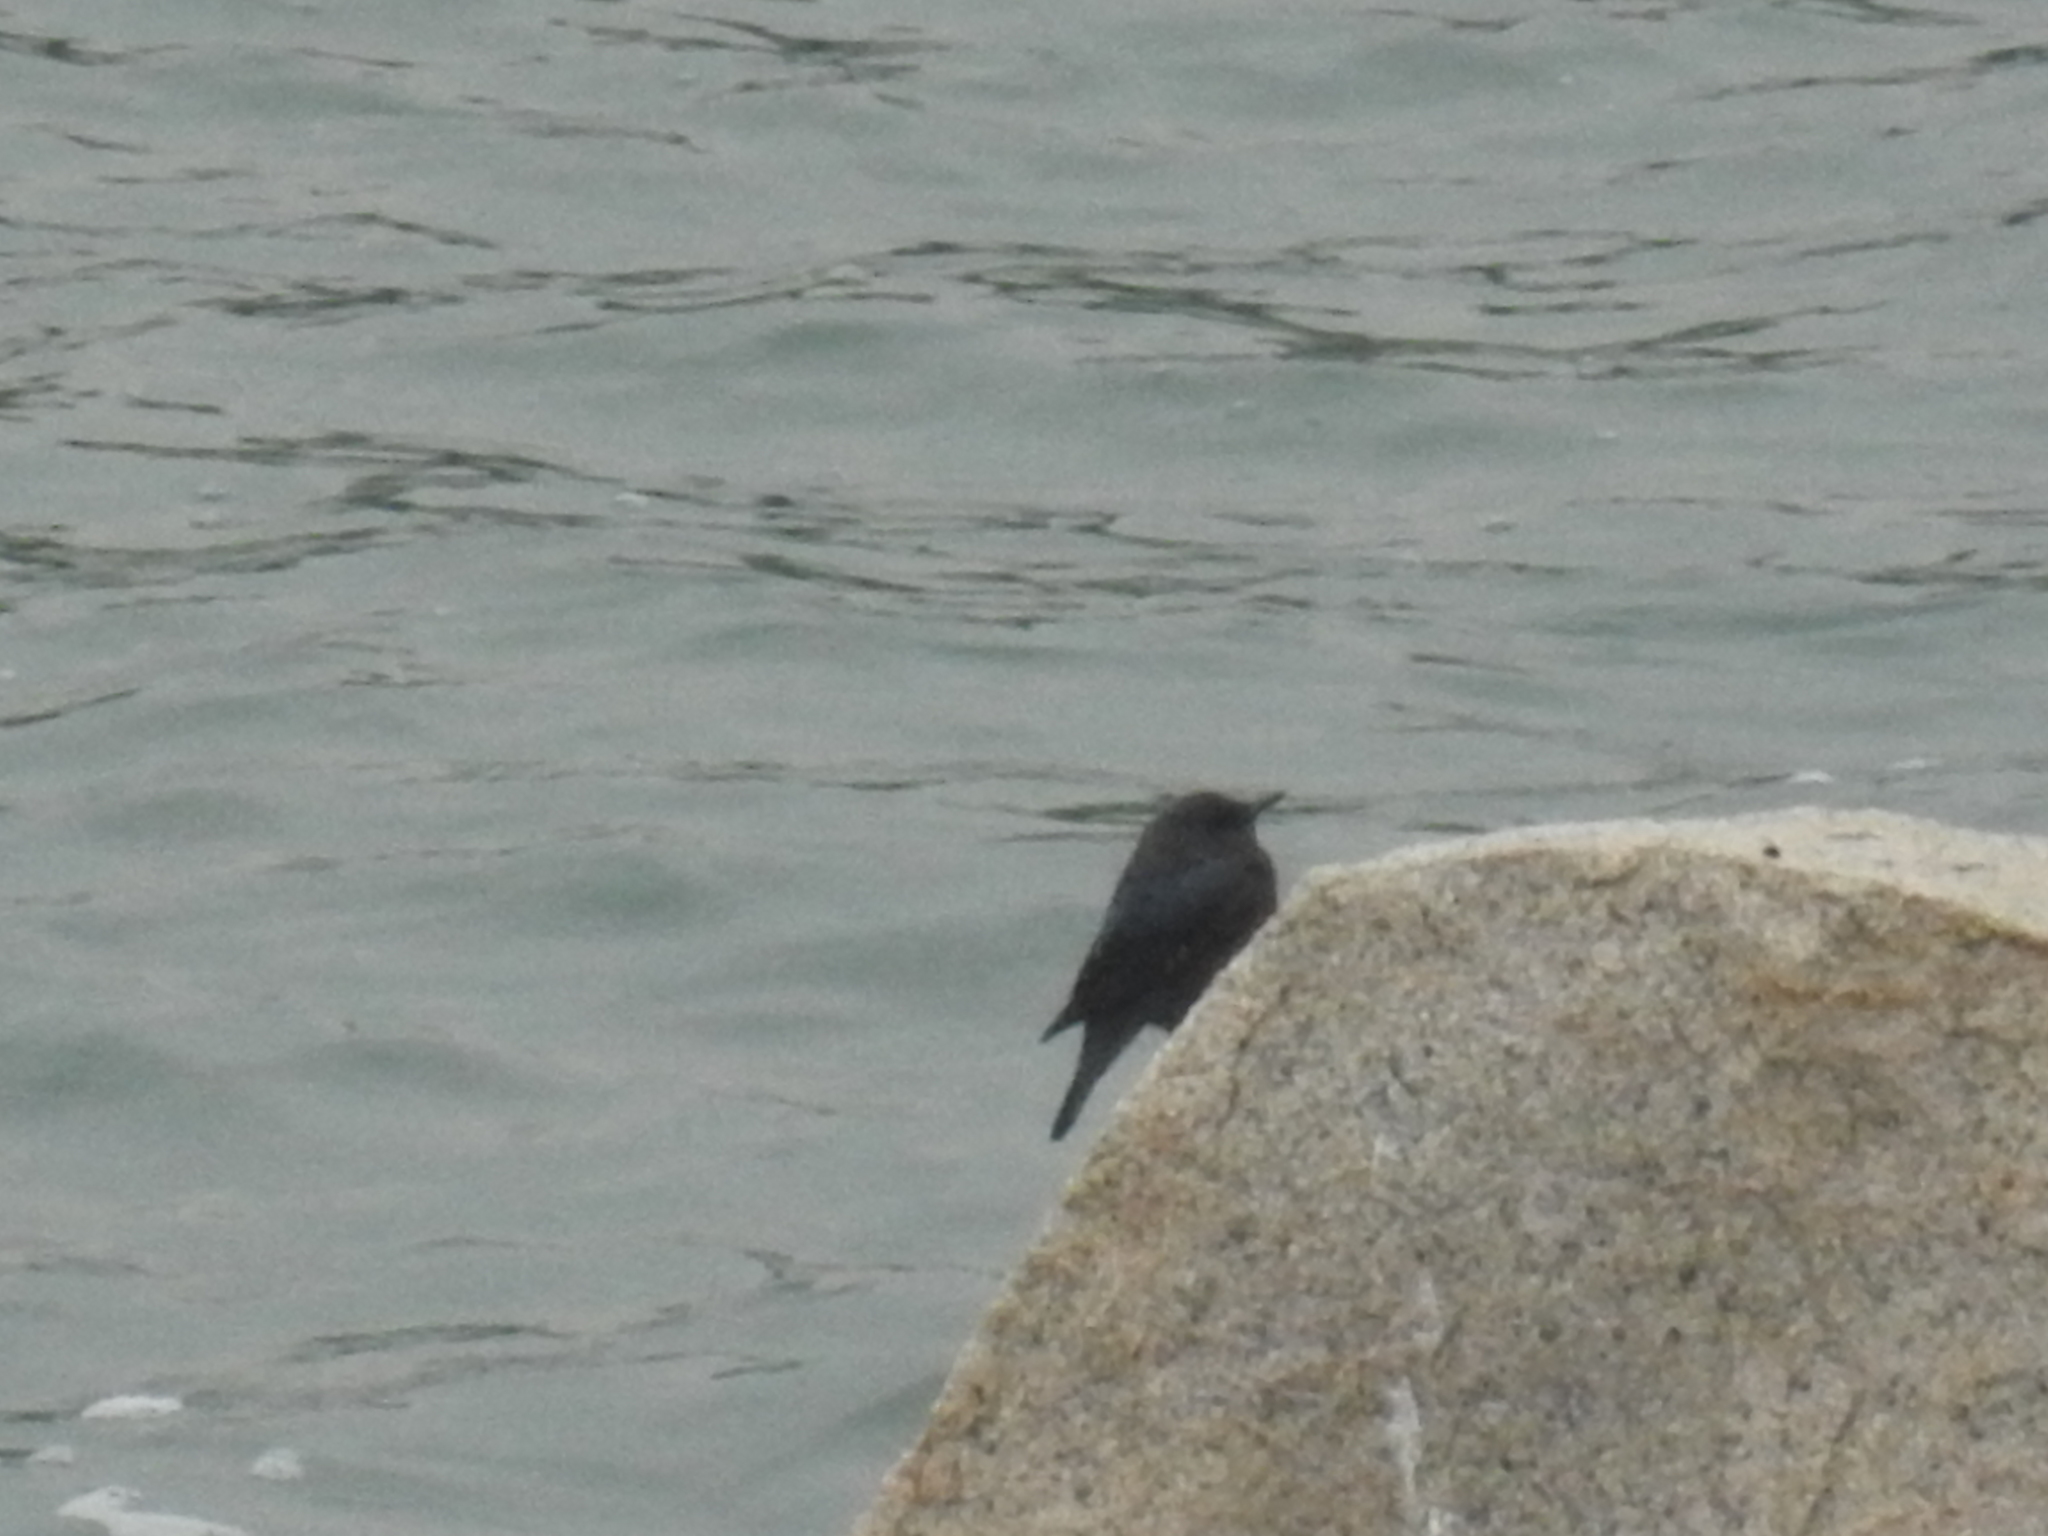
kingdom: Animalia
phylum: Chordata
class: Aves
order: Passeriformes
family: Muscicapidae
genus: Monticola
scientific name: Monticola solitarius
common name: Blue rock thrush
